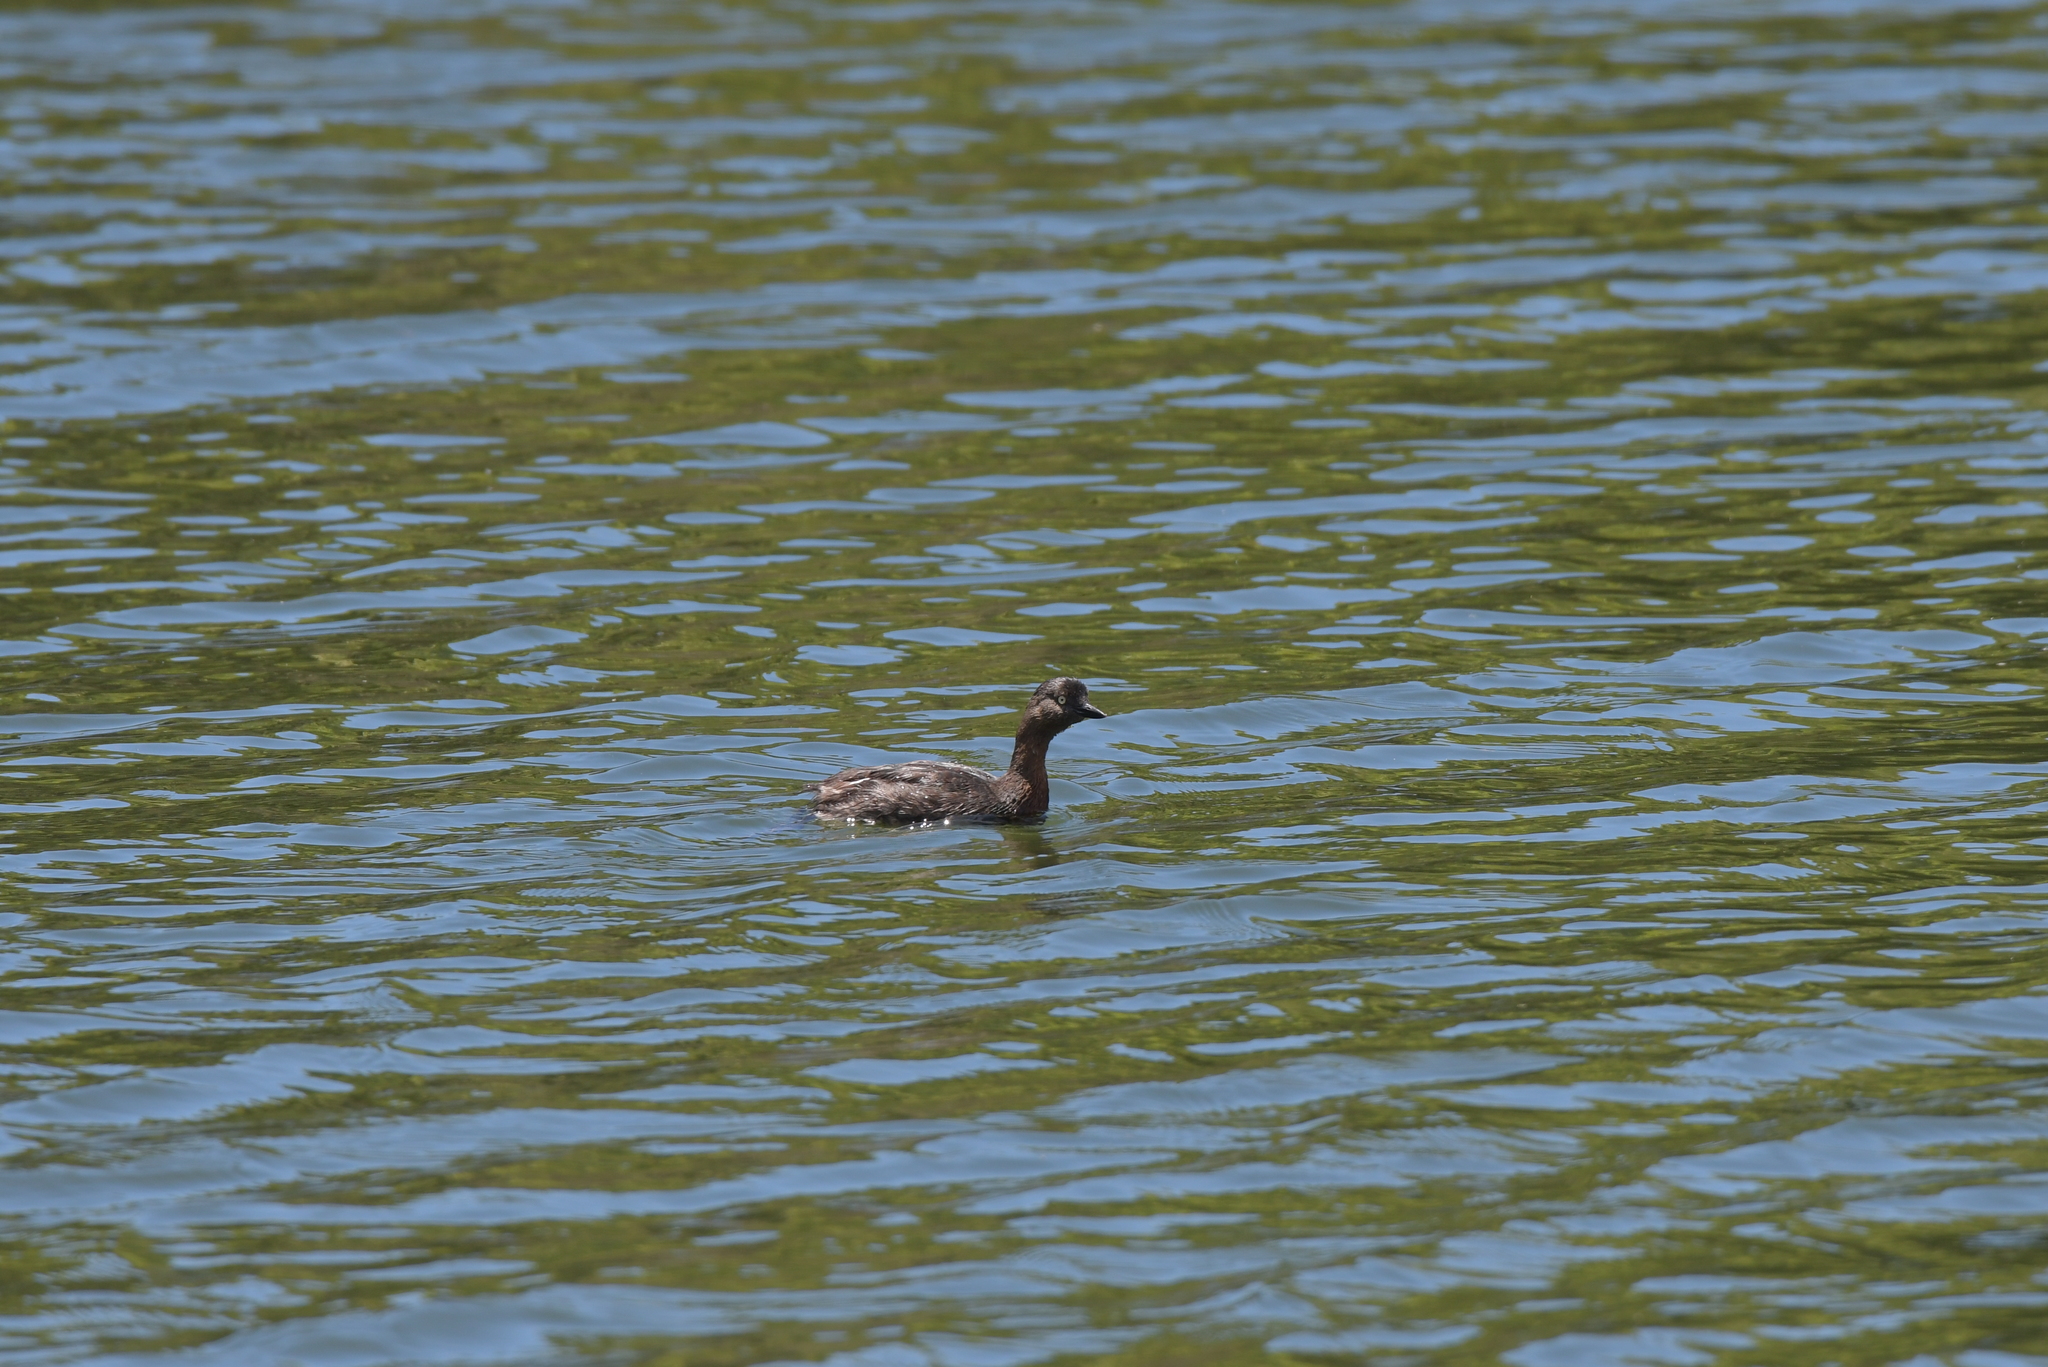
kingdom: Animalia
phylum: Chordata
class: Aves
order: Podicipediformes
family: Podicipedidae
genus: Poliocephalus
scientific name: Poliocephalus rufopectus
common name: New zealand grebe
